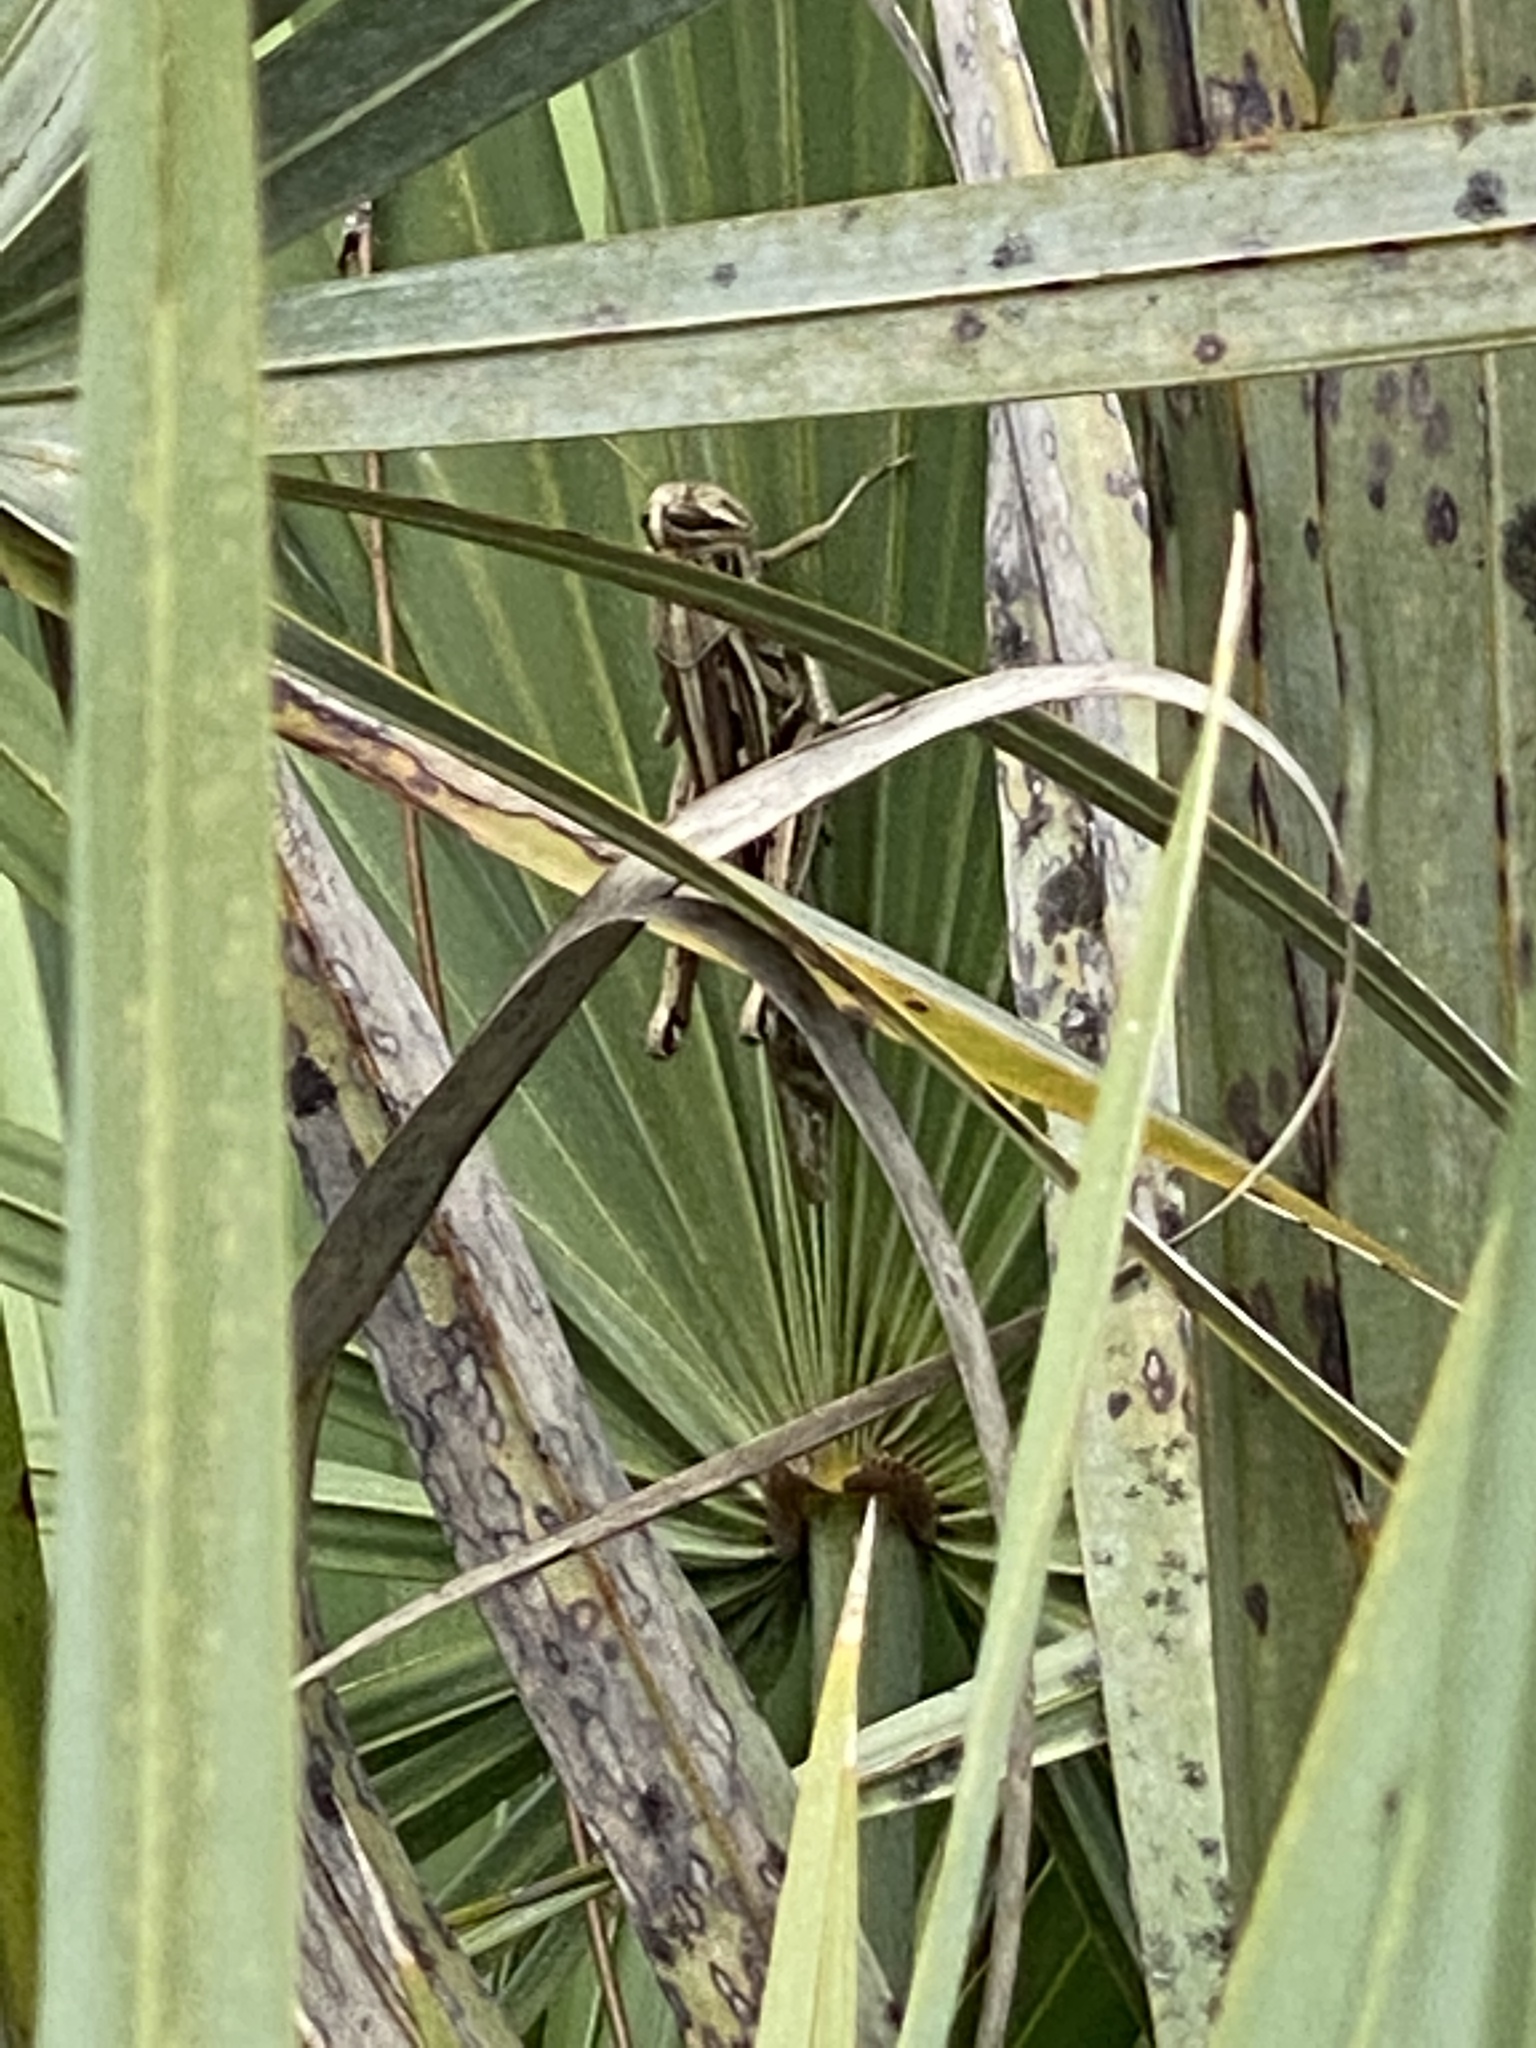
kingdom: Animalia
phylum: Arthropoda
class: Insecta
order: Orthoptera
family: Acrididae
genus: Schistocerca
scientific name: Schistocerca americana
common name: American bird locust
